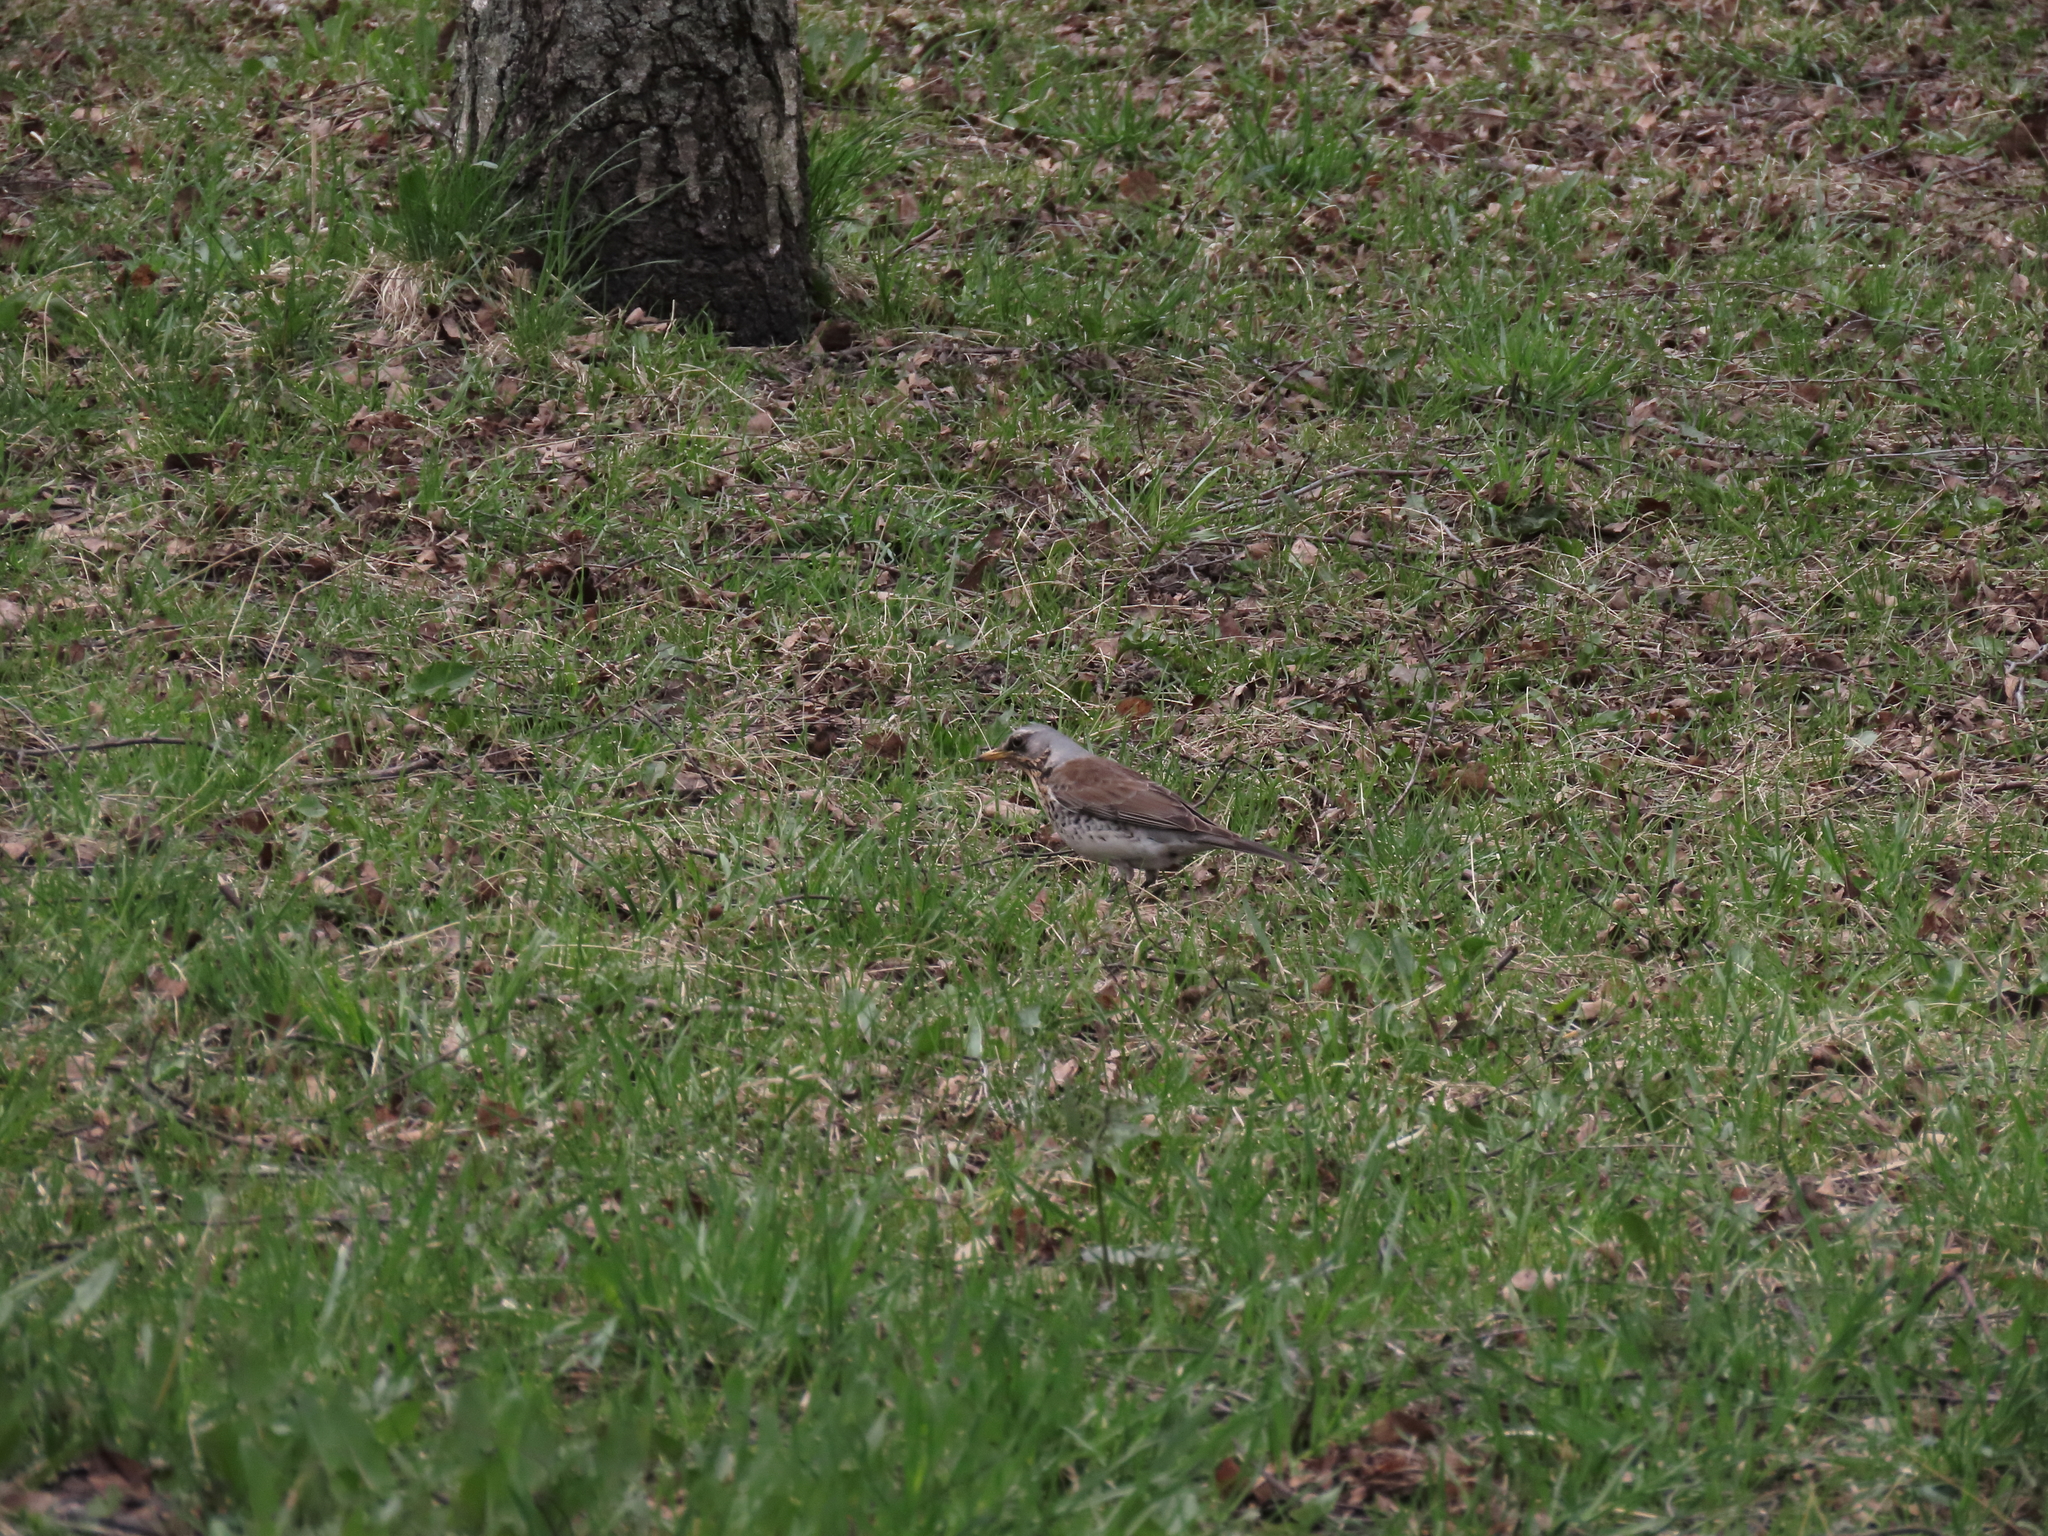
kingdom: Animalia
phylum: Chordata
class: Aves
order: Passeriformes
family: Turdidae
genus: Turdus
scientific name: Turdus pilaris
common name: Fieldfare
